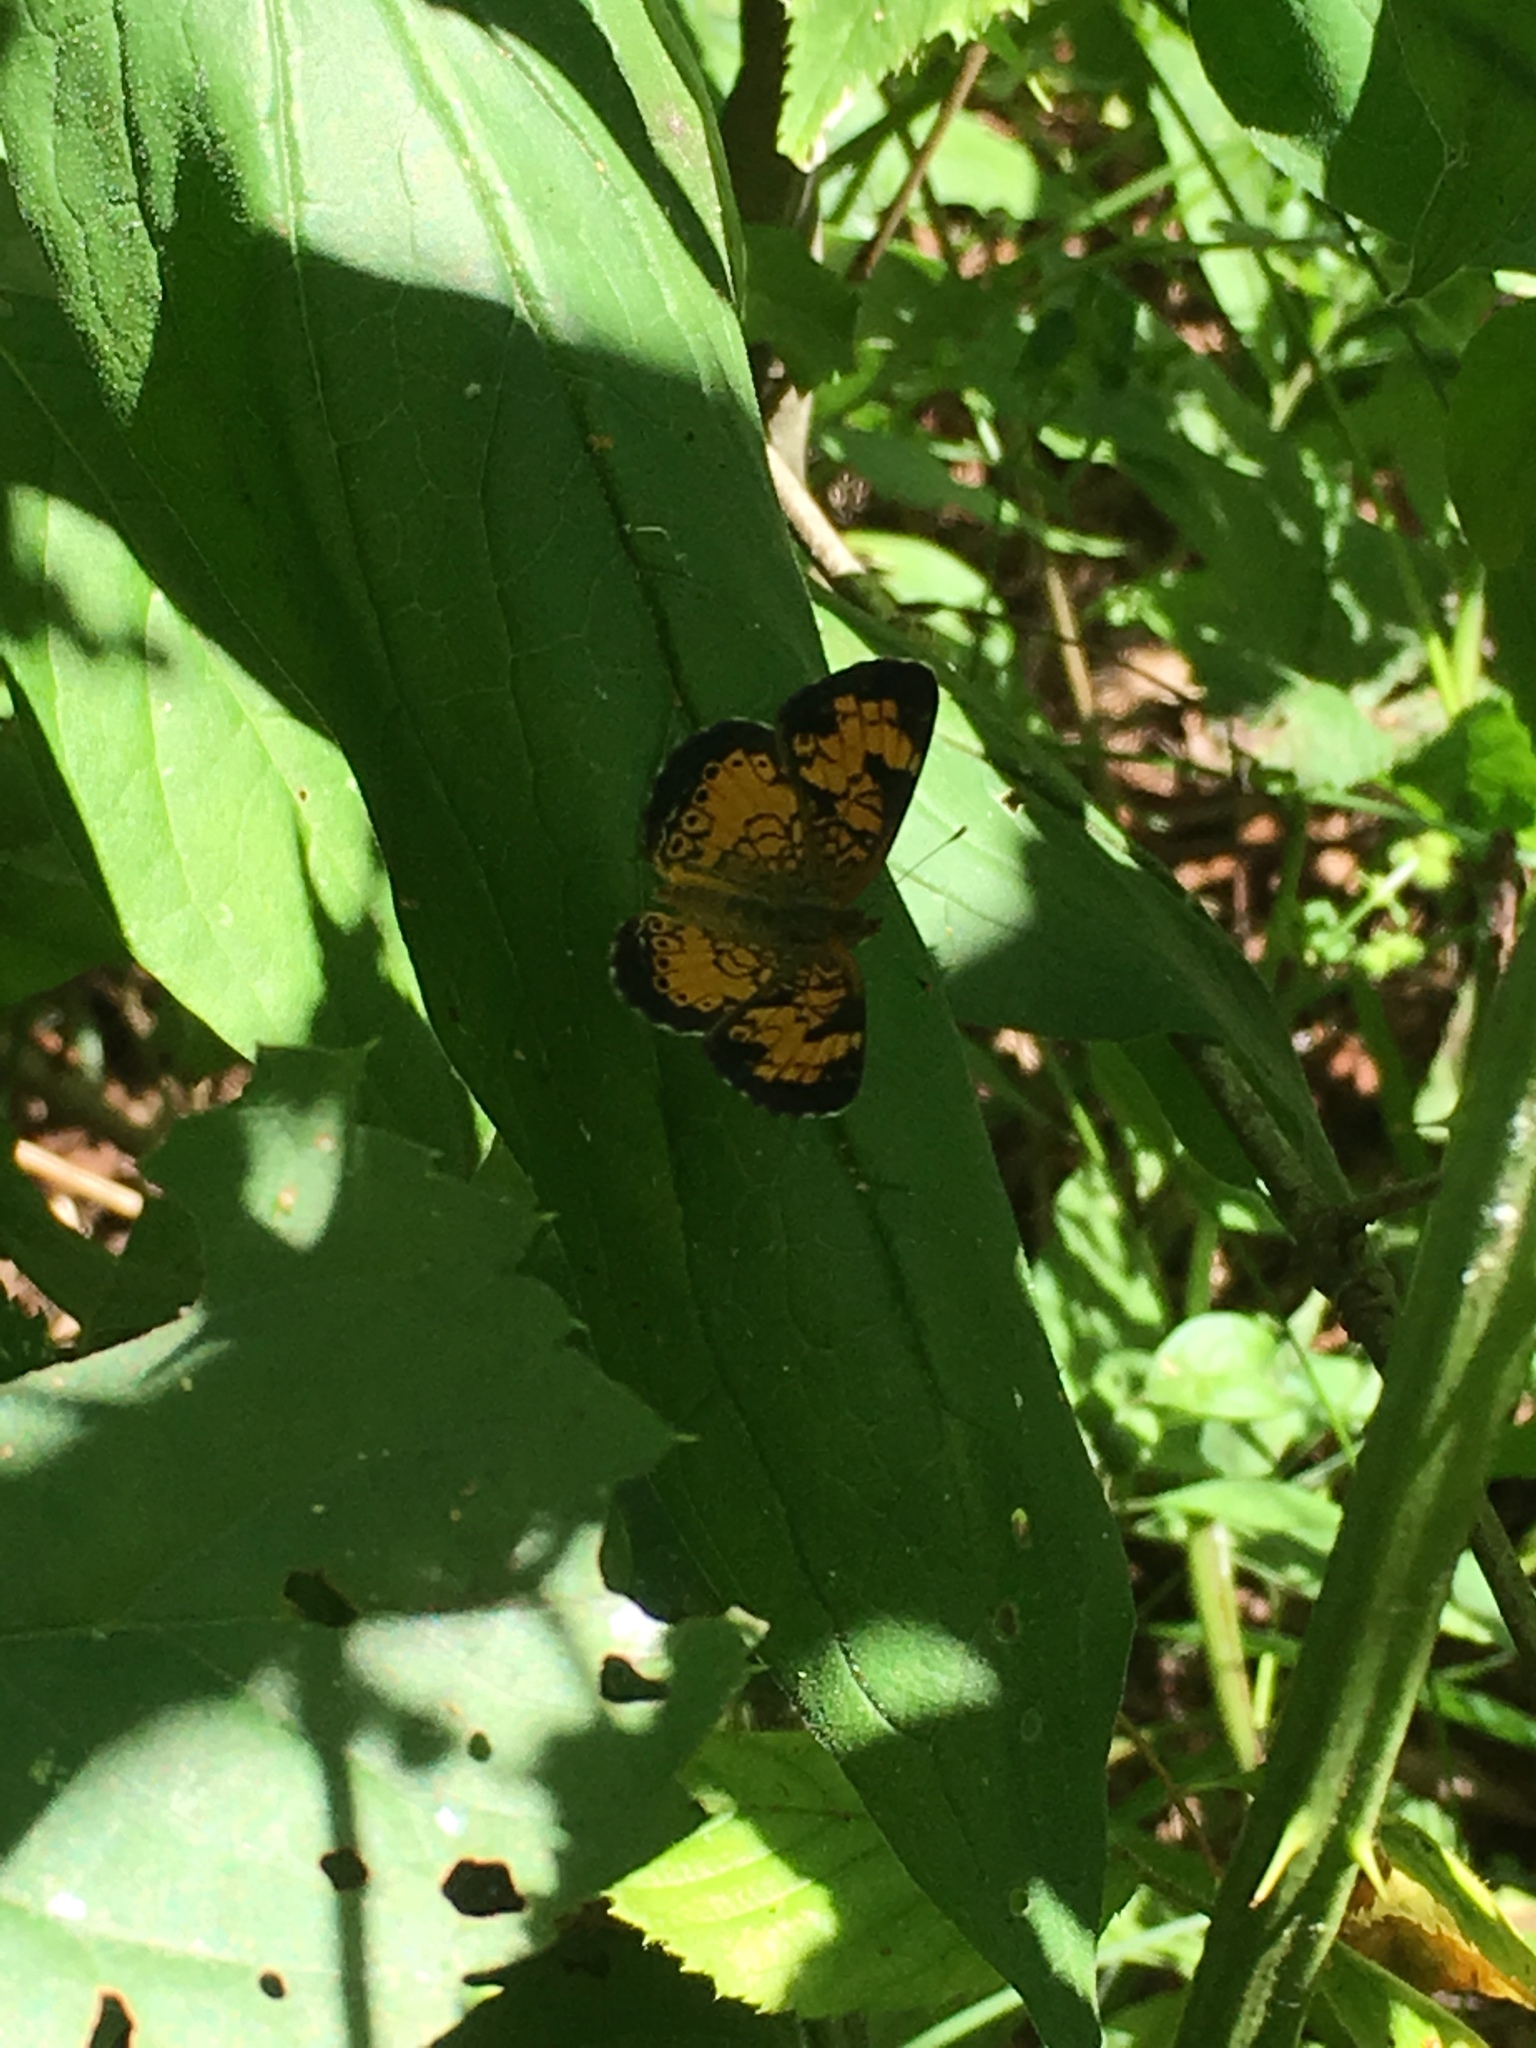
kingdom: Animalia
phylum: Arthropoda
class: Insecta
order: Lepidoptera
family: Nymphalidae
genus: Phyciodes
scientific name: Phyciodes tharos
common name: Pearl crescent
